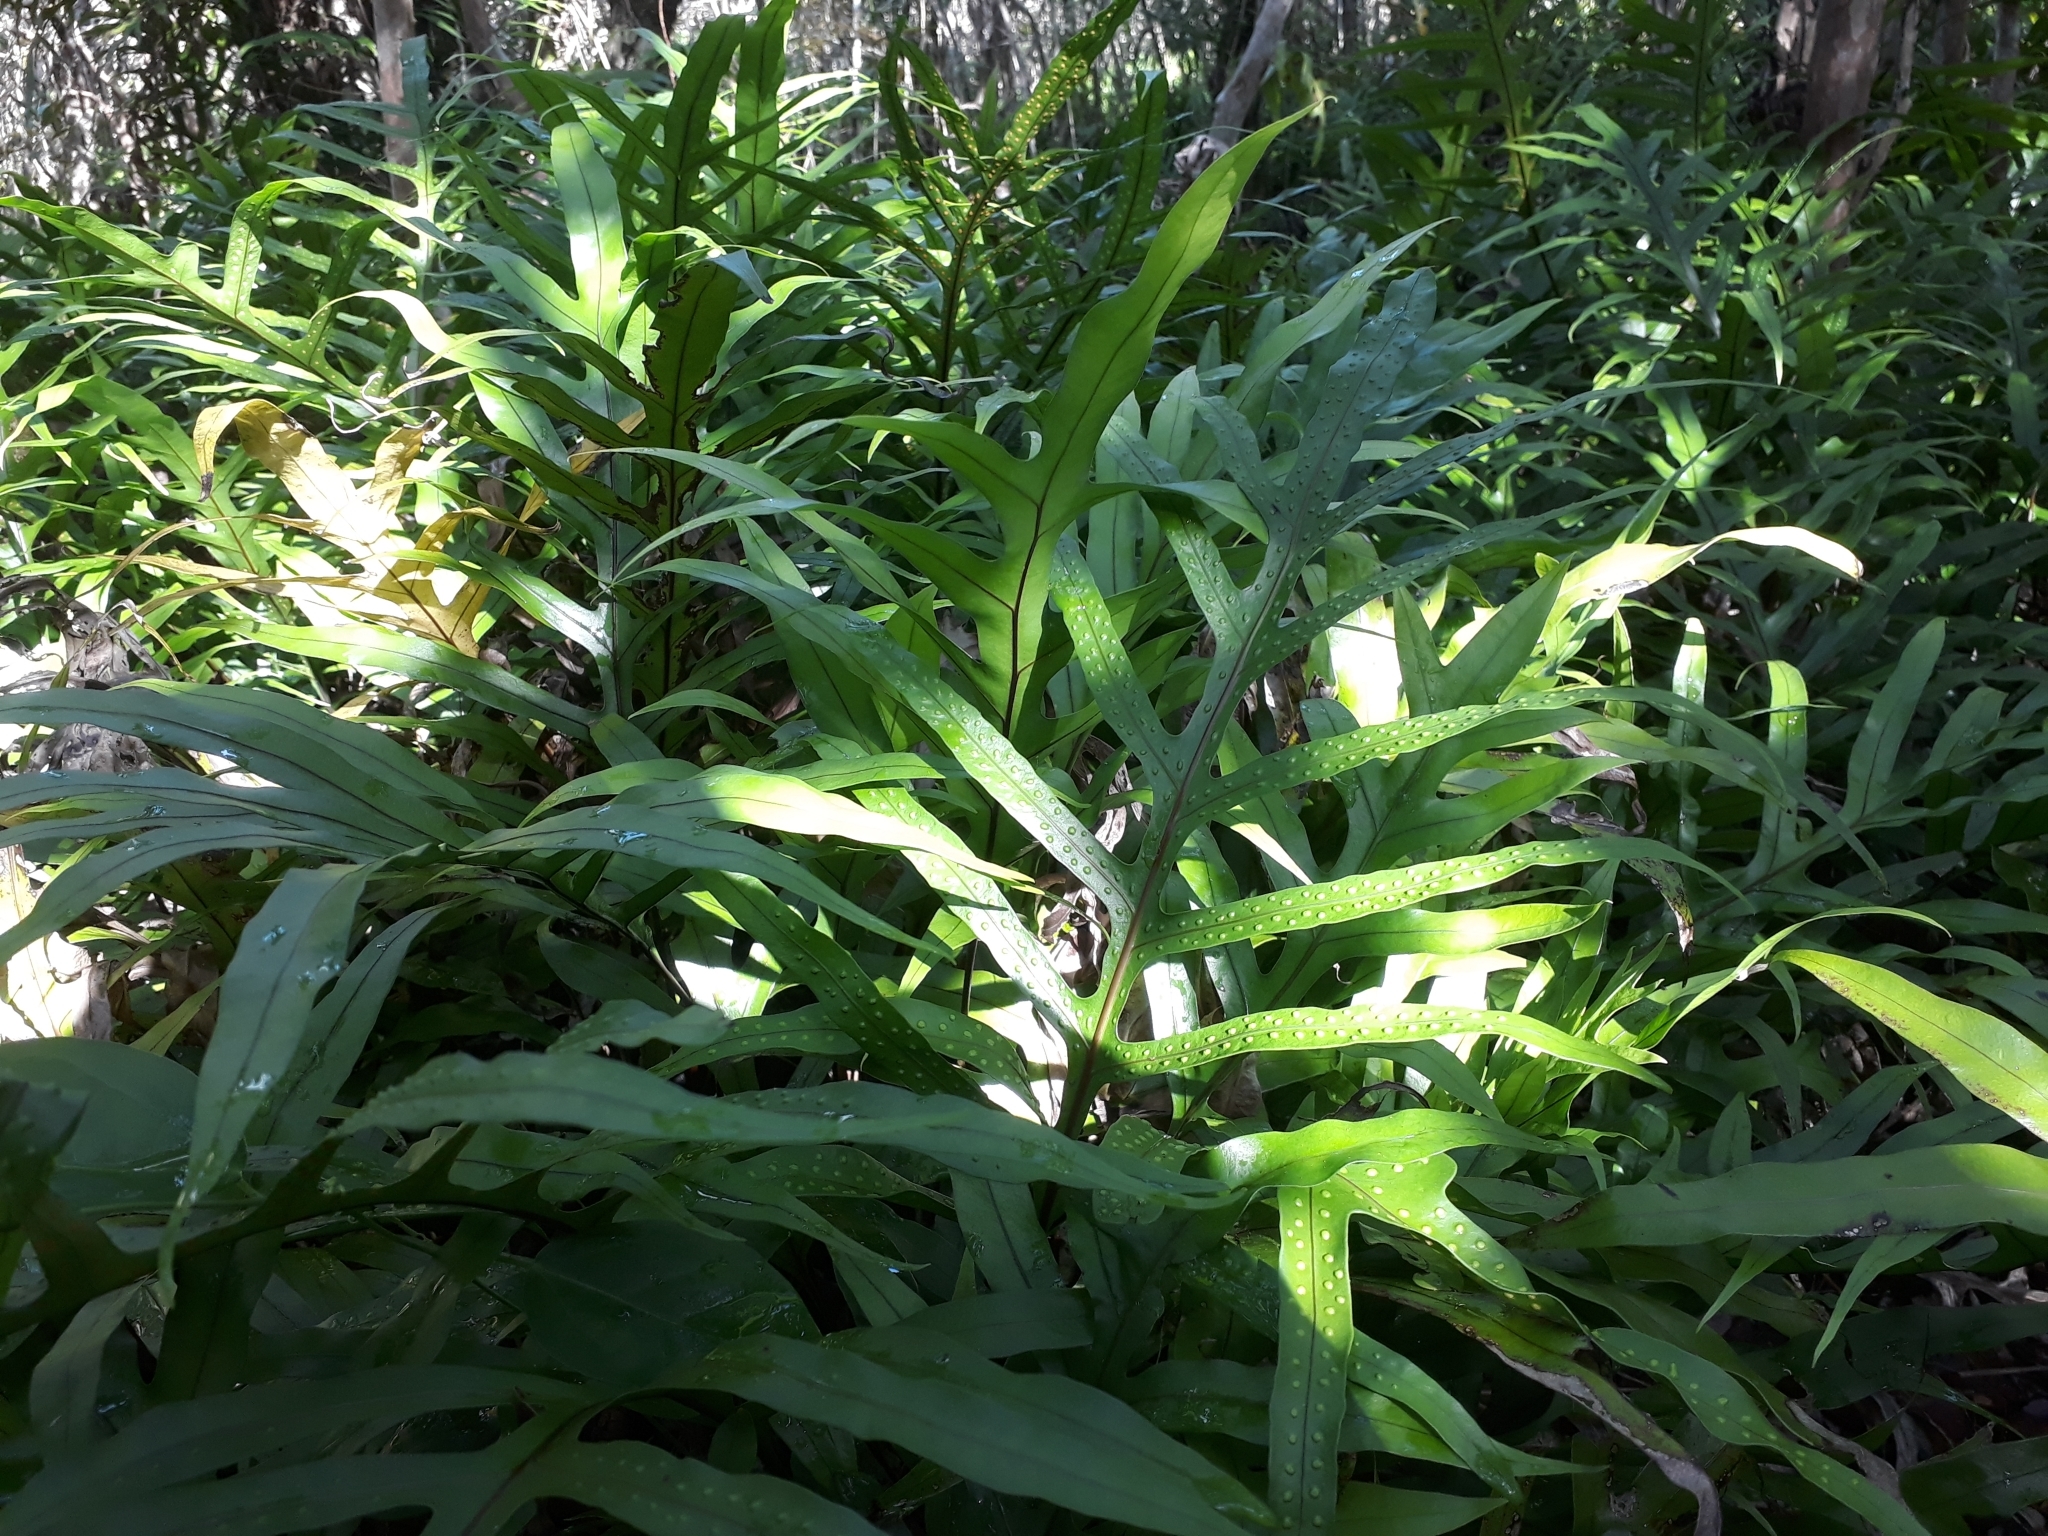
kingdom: Plantae
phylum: Tracheophyta
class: Polypodiopsida
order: Polypodiales
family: Polypodiaceae
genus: Microsorum
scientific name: Microsorum scolopendria
